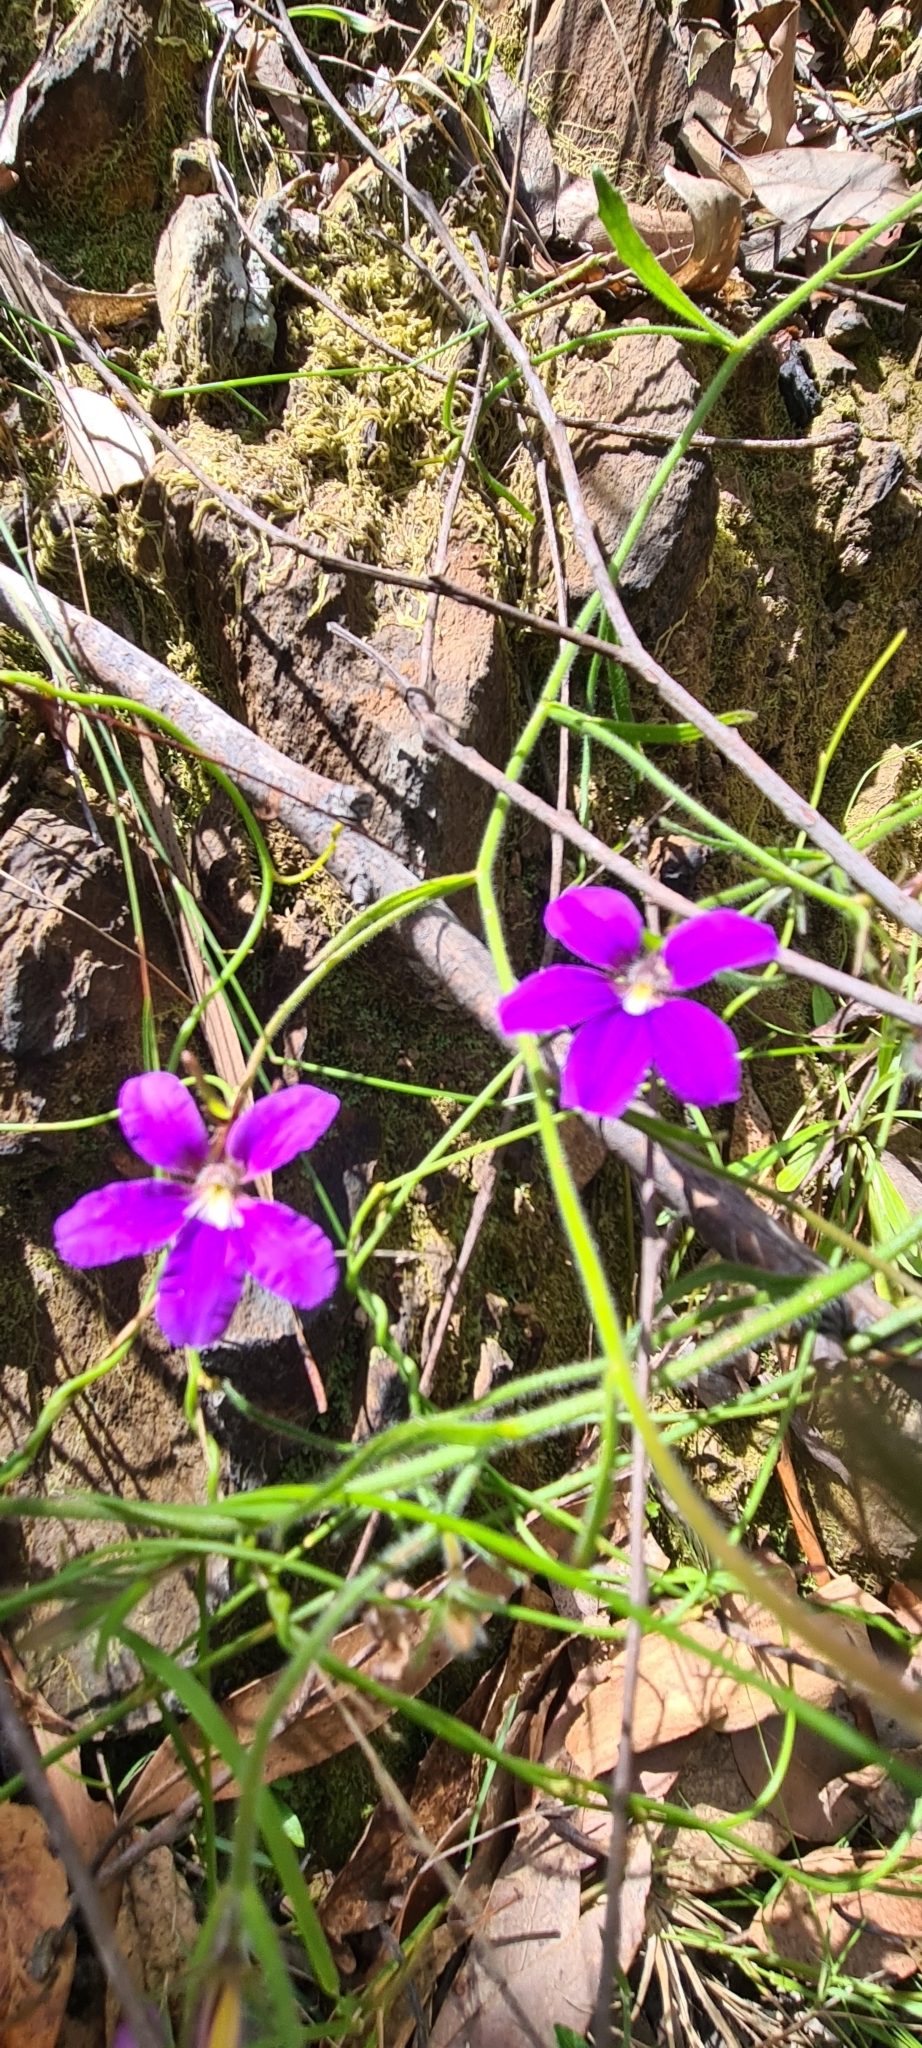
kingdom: Plantae
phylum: Tracheophyta
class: Magnoliopsida
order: Asterales
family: Goodeniaceae
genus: Scaevola
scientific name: Scaevola ramosissima
